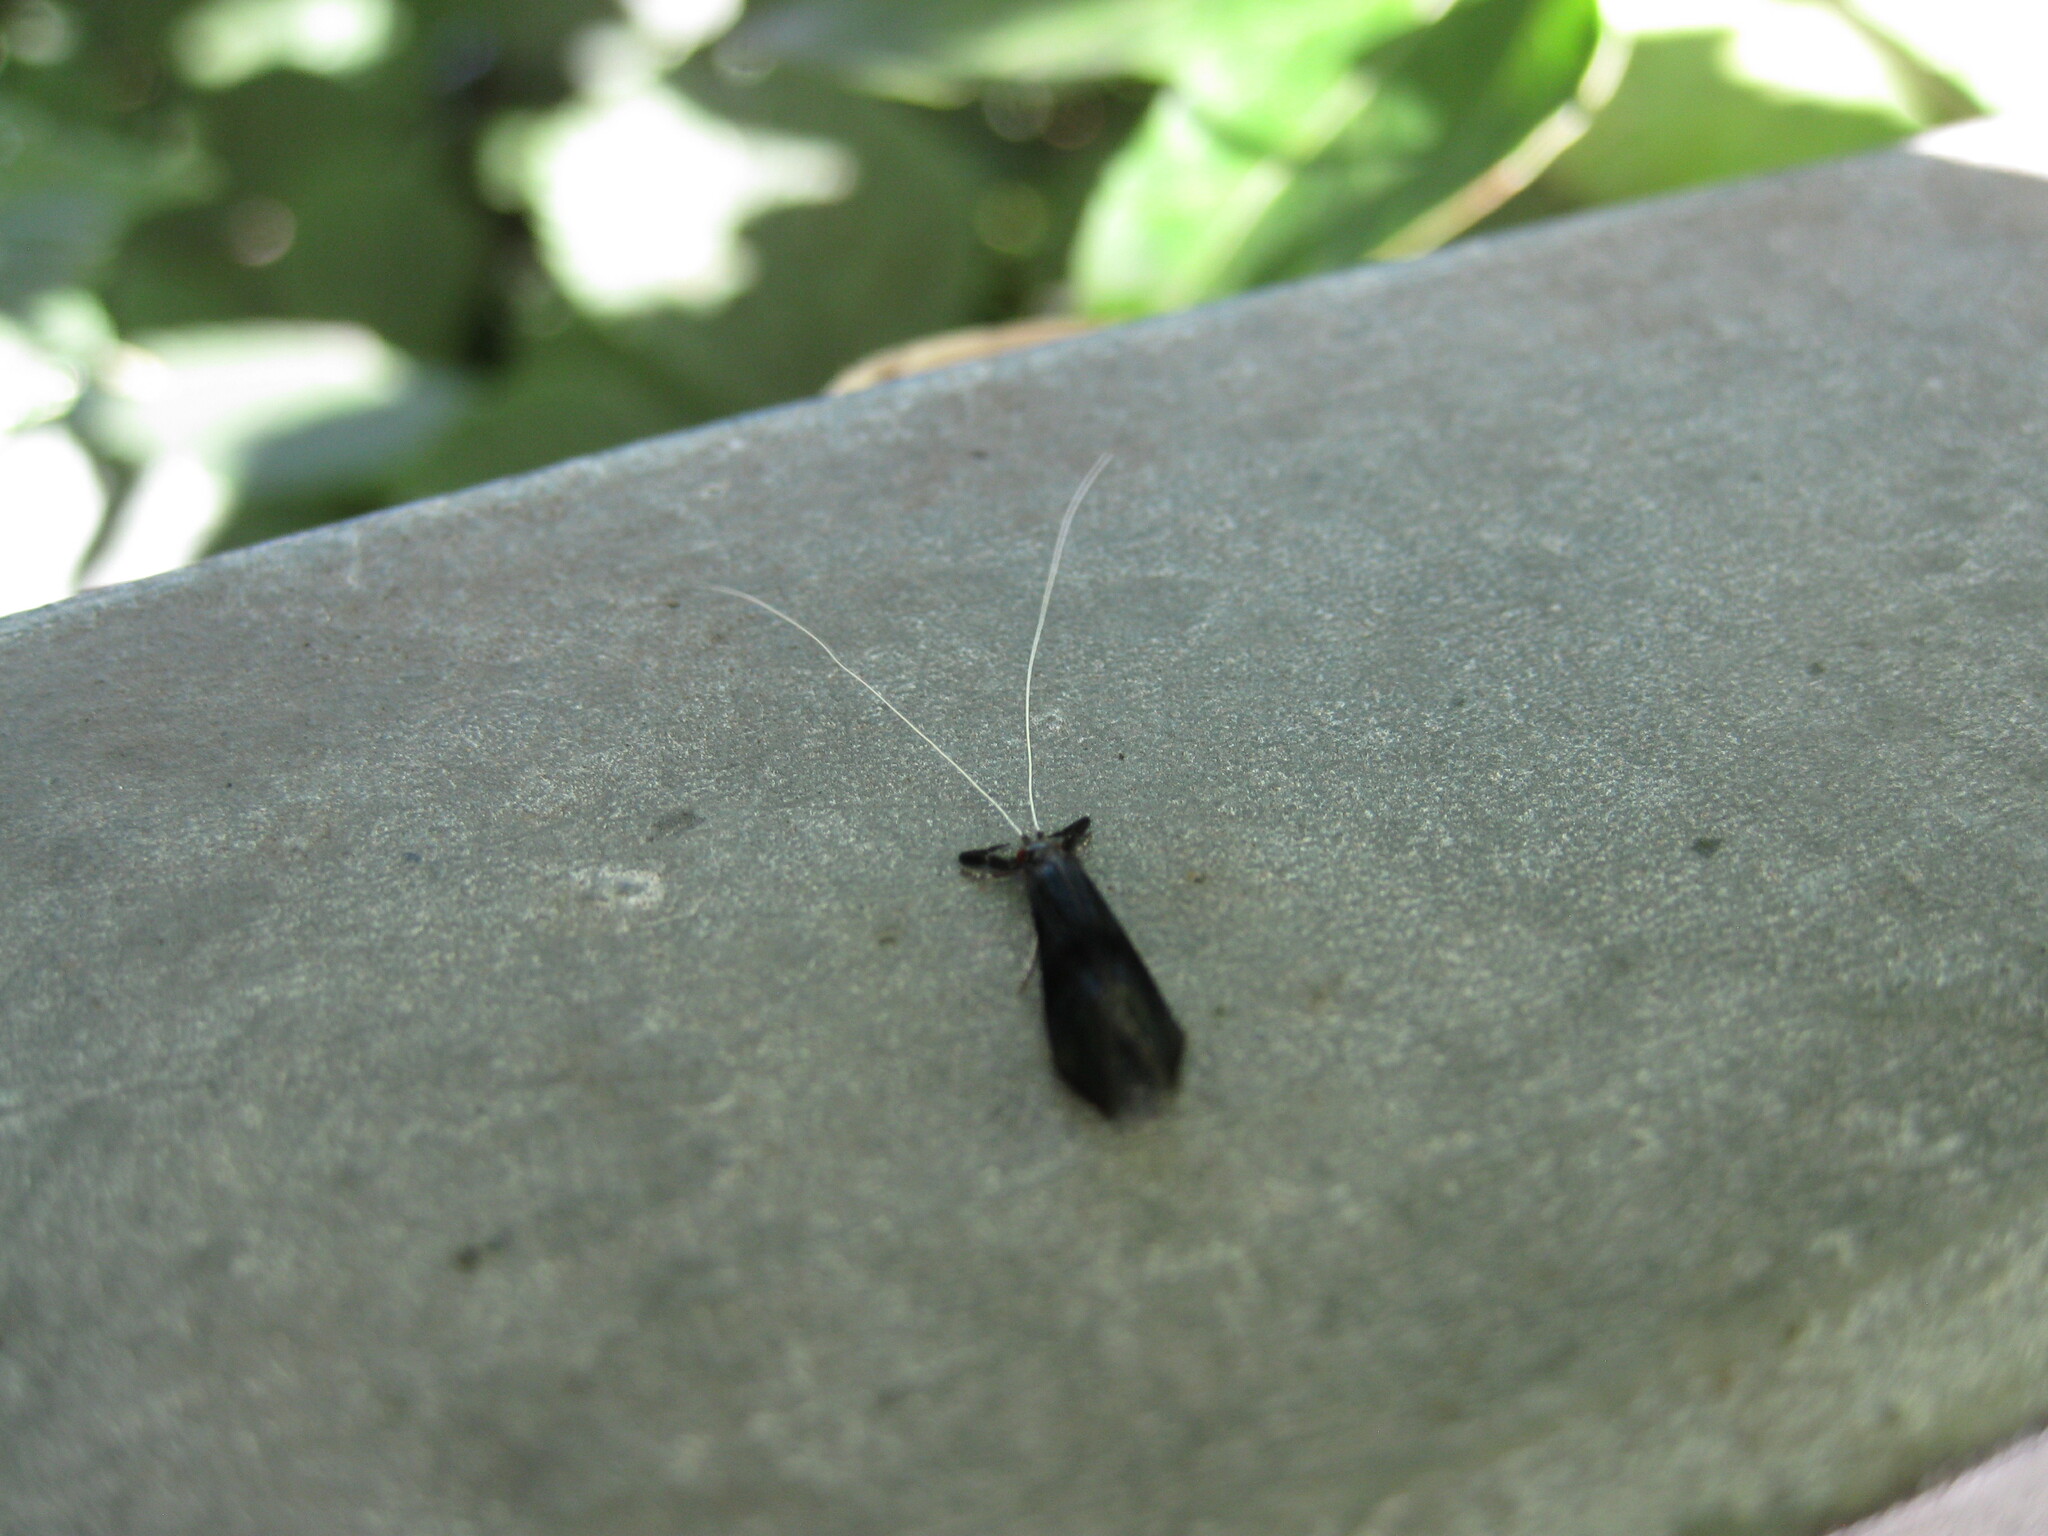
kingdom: Animalia
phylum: Arthropoda
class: Insecta
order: Trichoptera
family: Leptoceridae
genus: Mystacides
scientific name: Mystacides azureus
